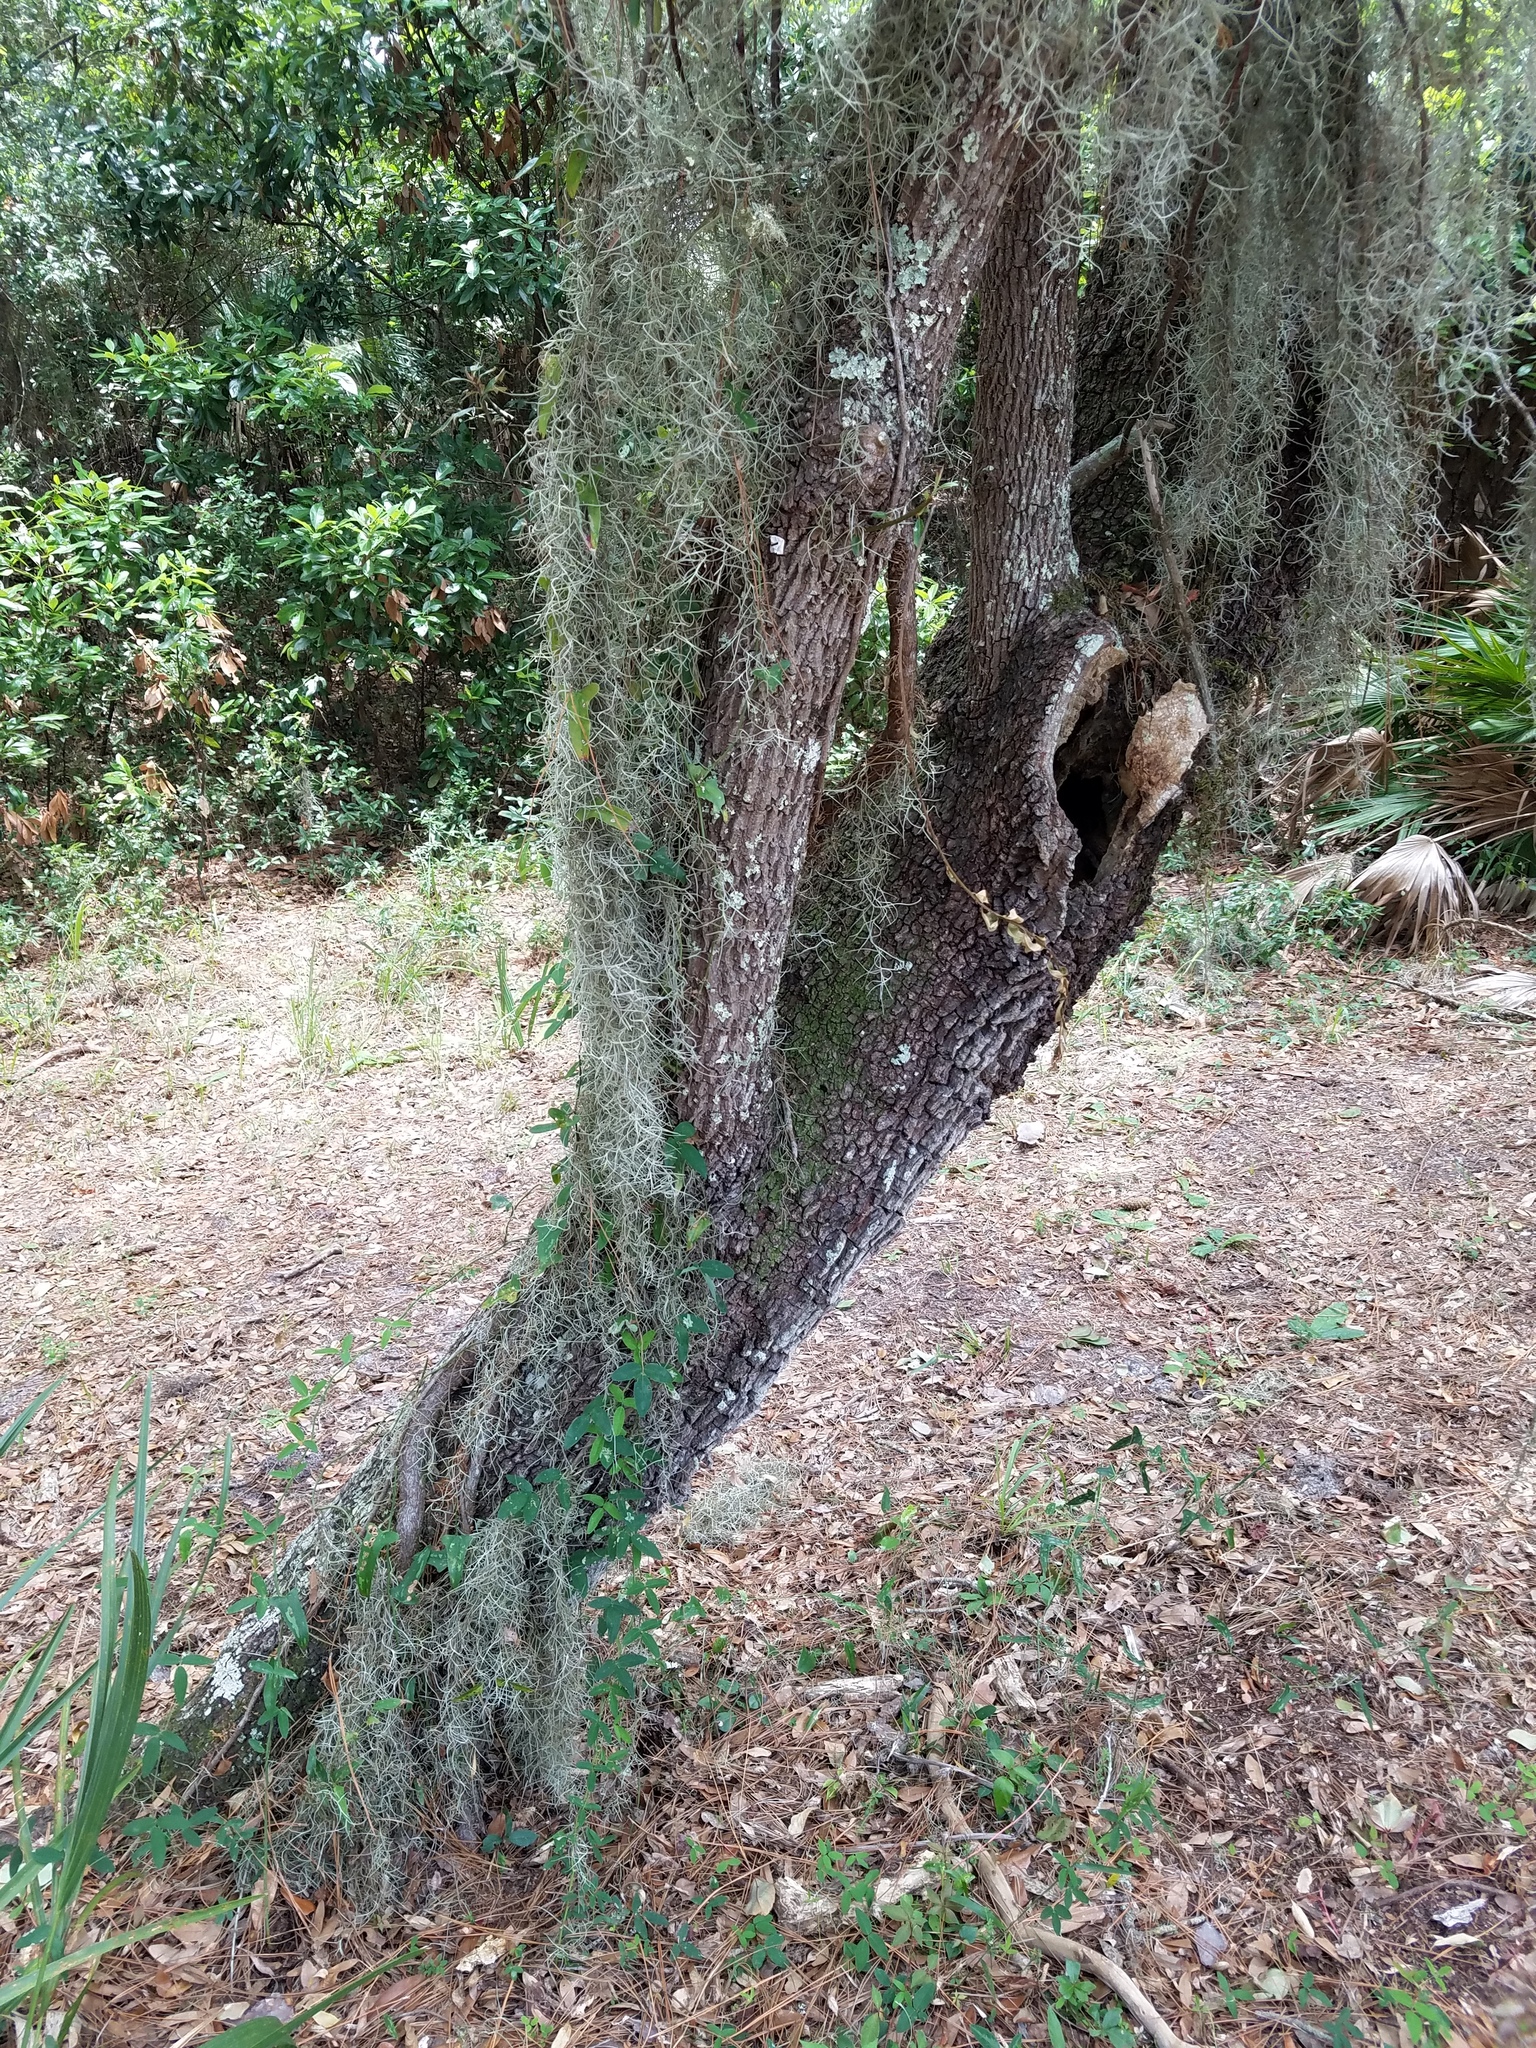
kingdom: Plantae
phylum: Tracheophyta
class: Magnoliopsida
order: Ericales
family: Sapotaceae
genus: Sideroxylon
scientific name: Sideroxylon tenax
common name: Tough-buckthorn
